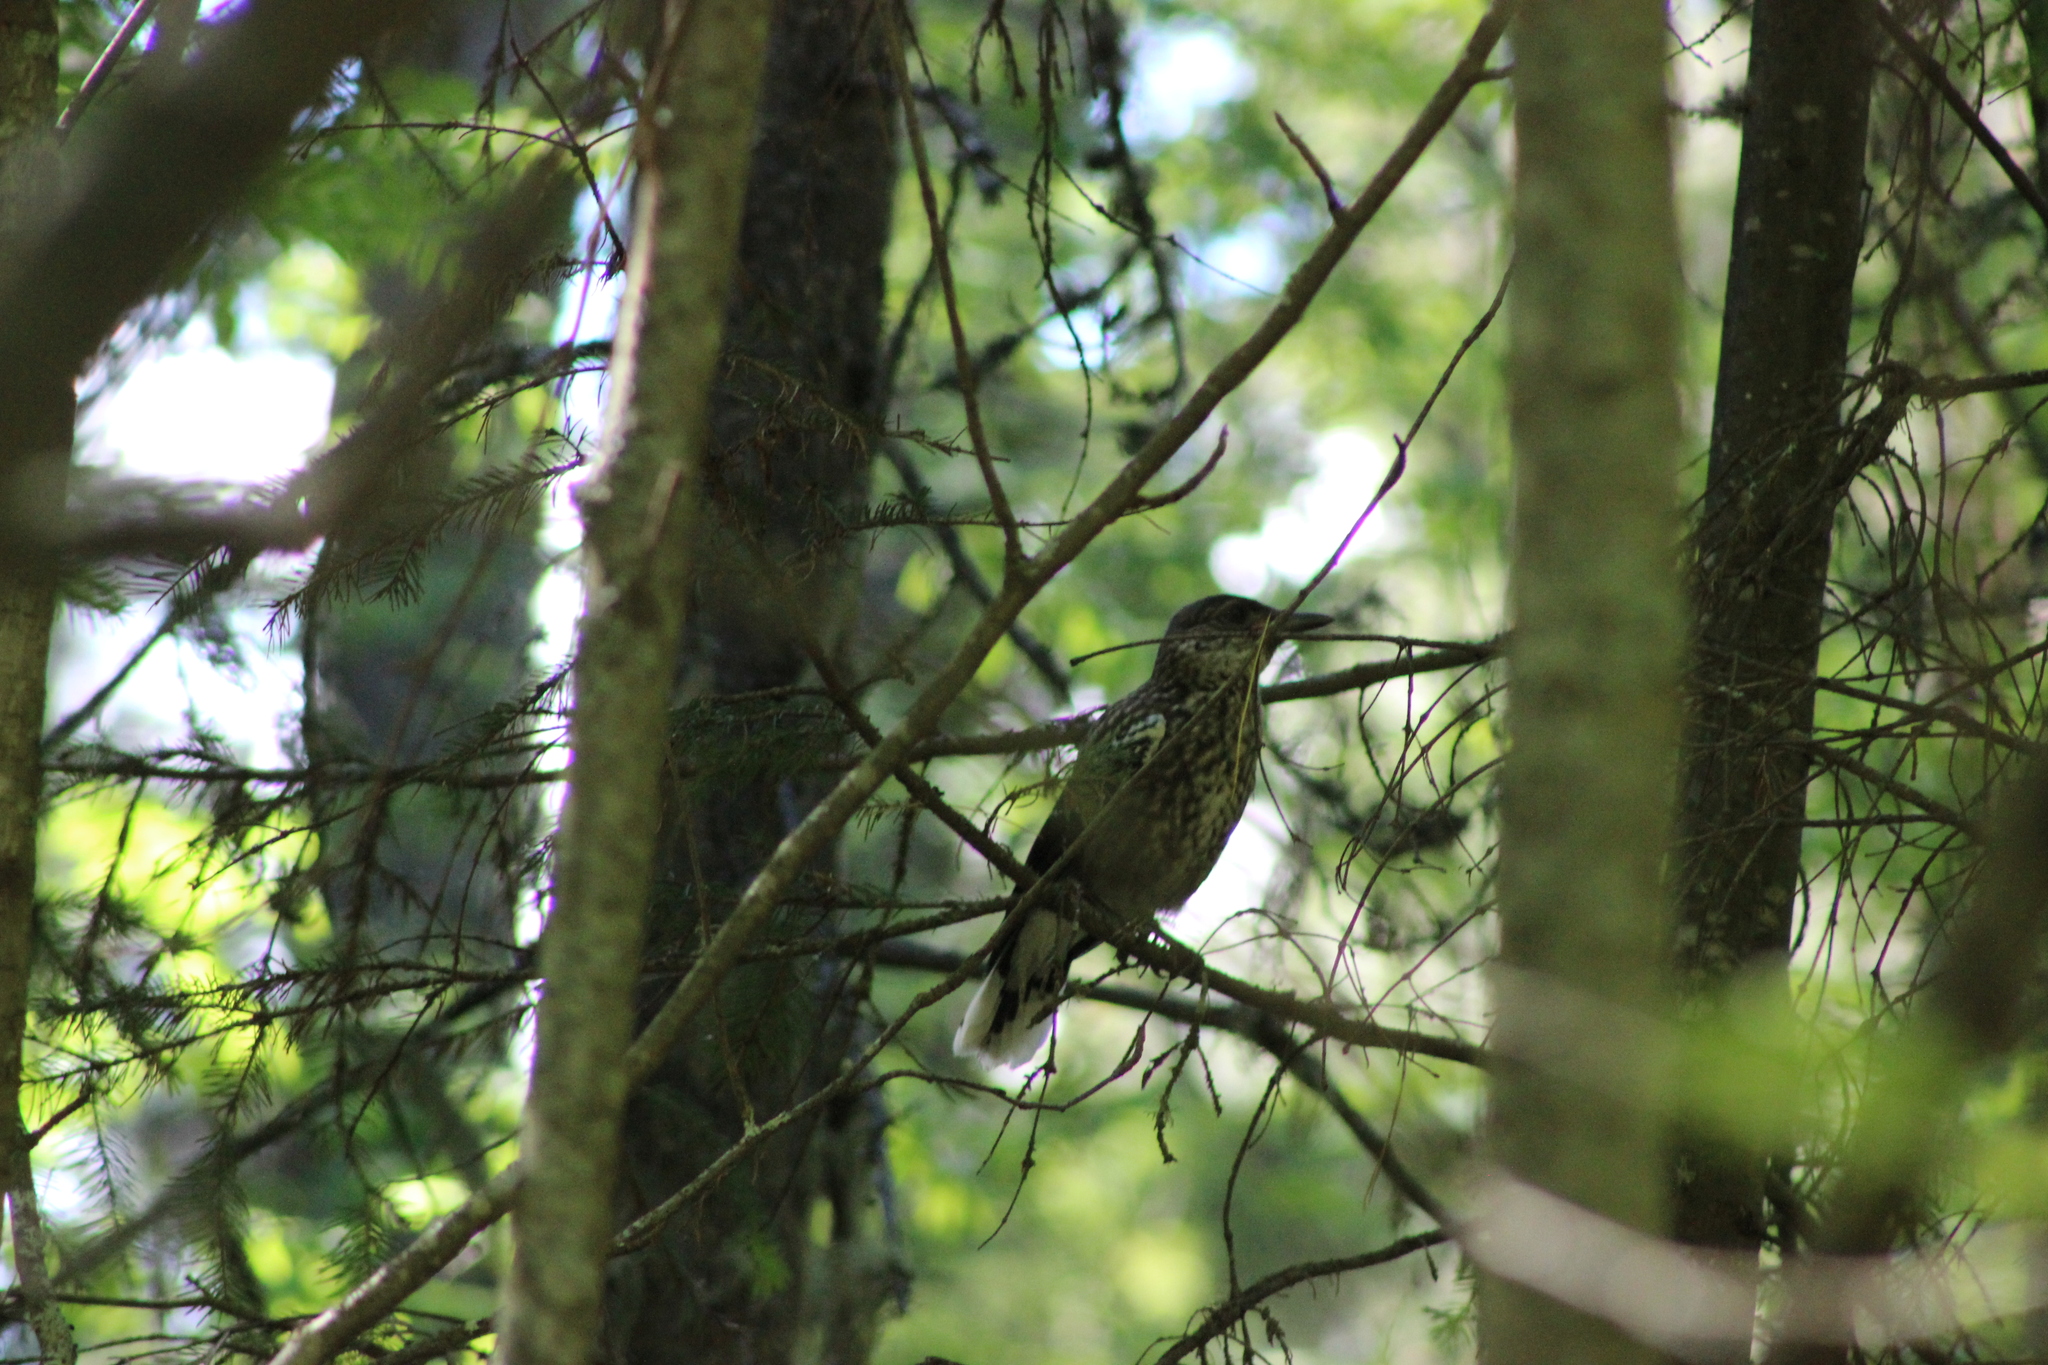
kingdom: Animalia
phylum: Chordata
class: Aves
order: Passeriformes
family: Corvidae
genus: Nucifraga
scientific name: Nucifraga caryocatactes
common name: Spotted nutcracker
